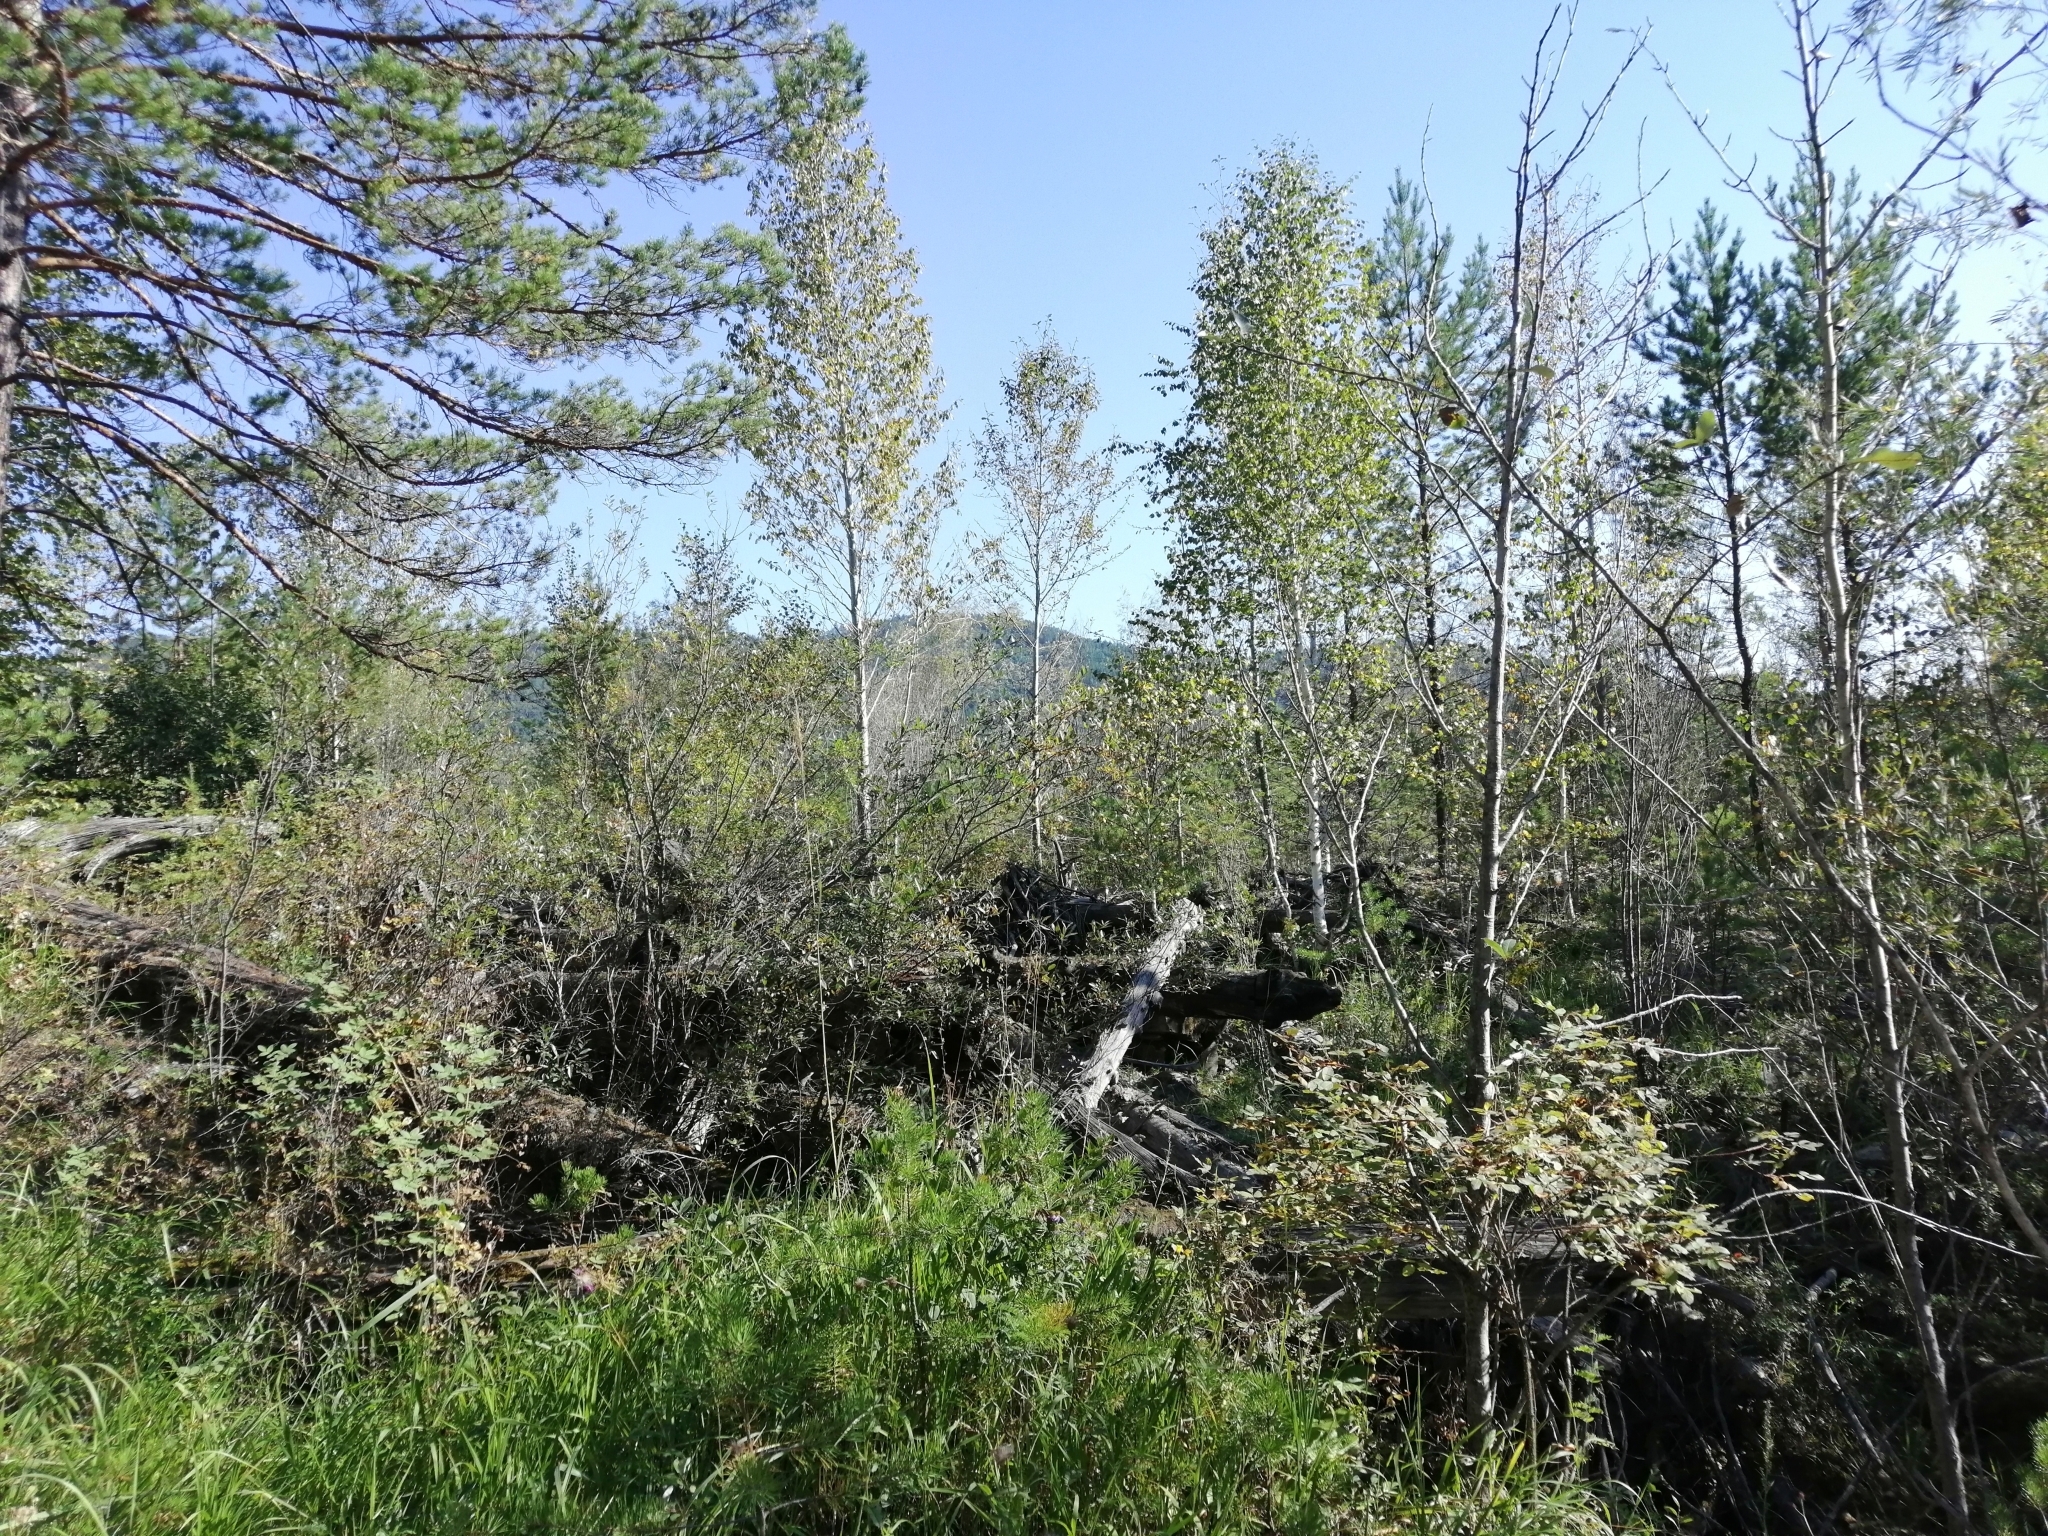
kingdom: Plantae
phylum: Tracheophyta
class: Pinopsida
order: Pinales
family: Pinaceae
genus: Pinus
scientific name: Pinus sylvestris
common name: Scots pine
